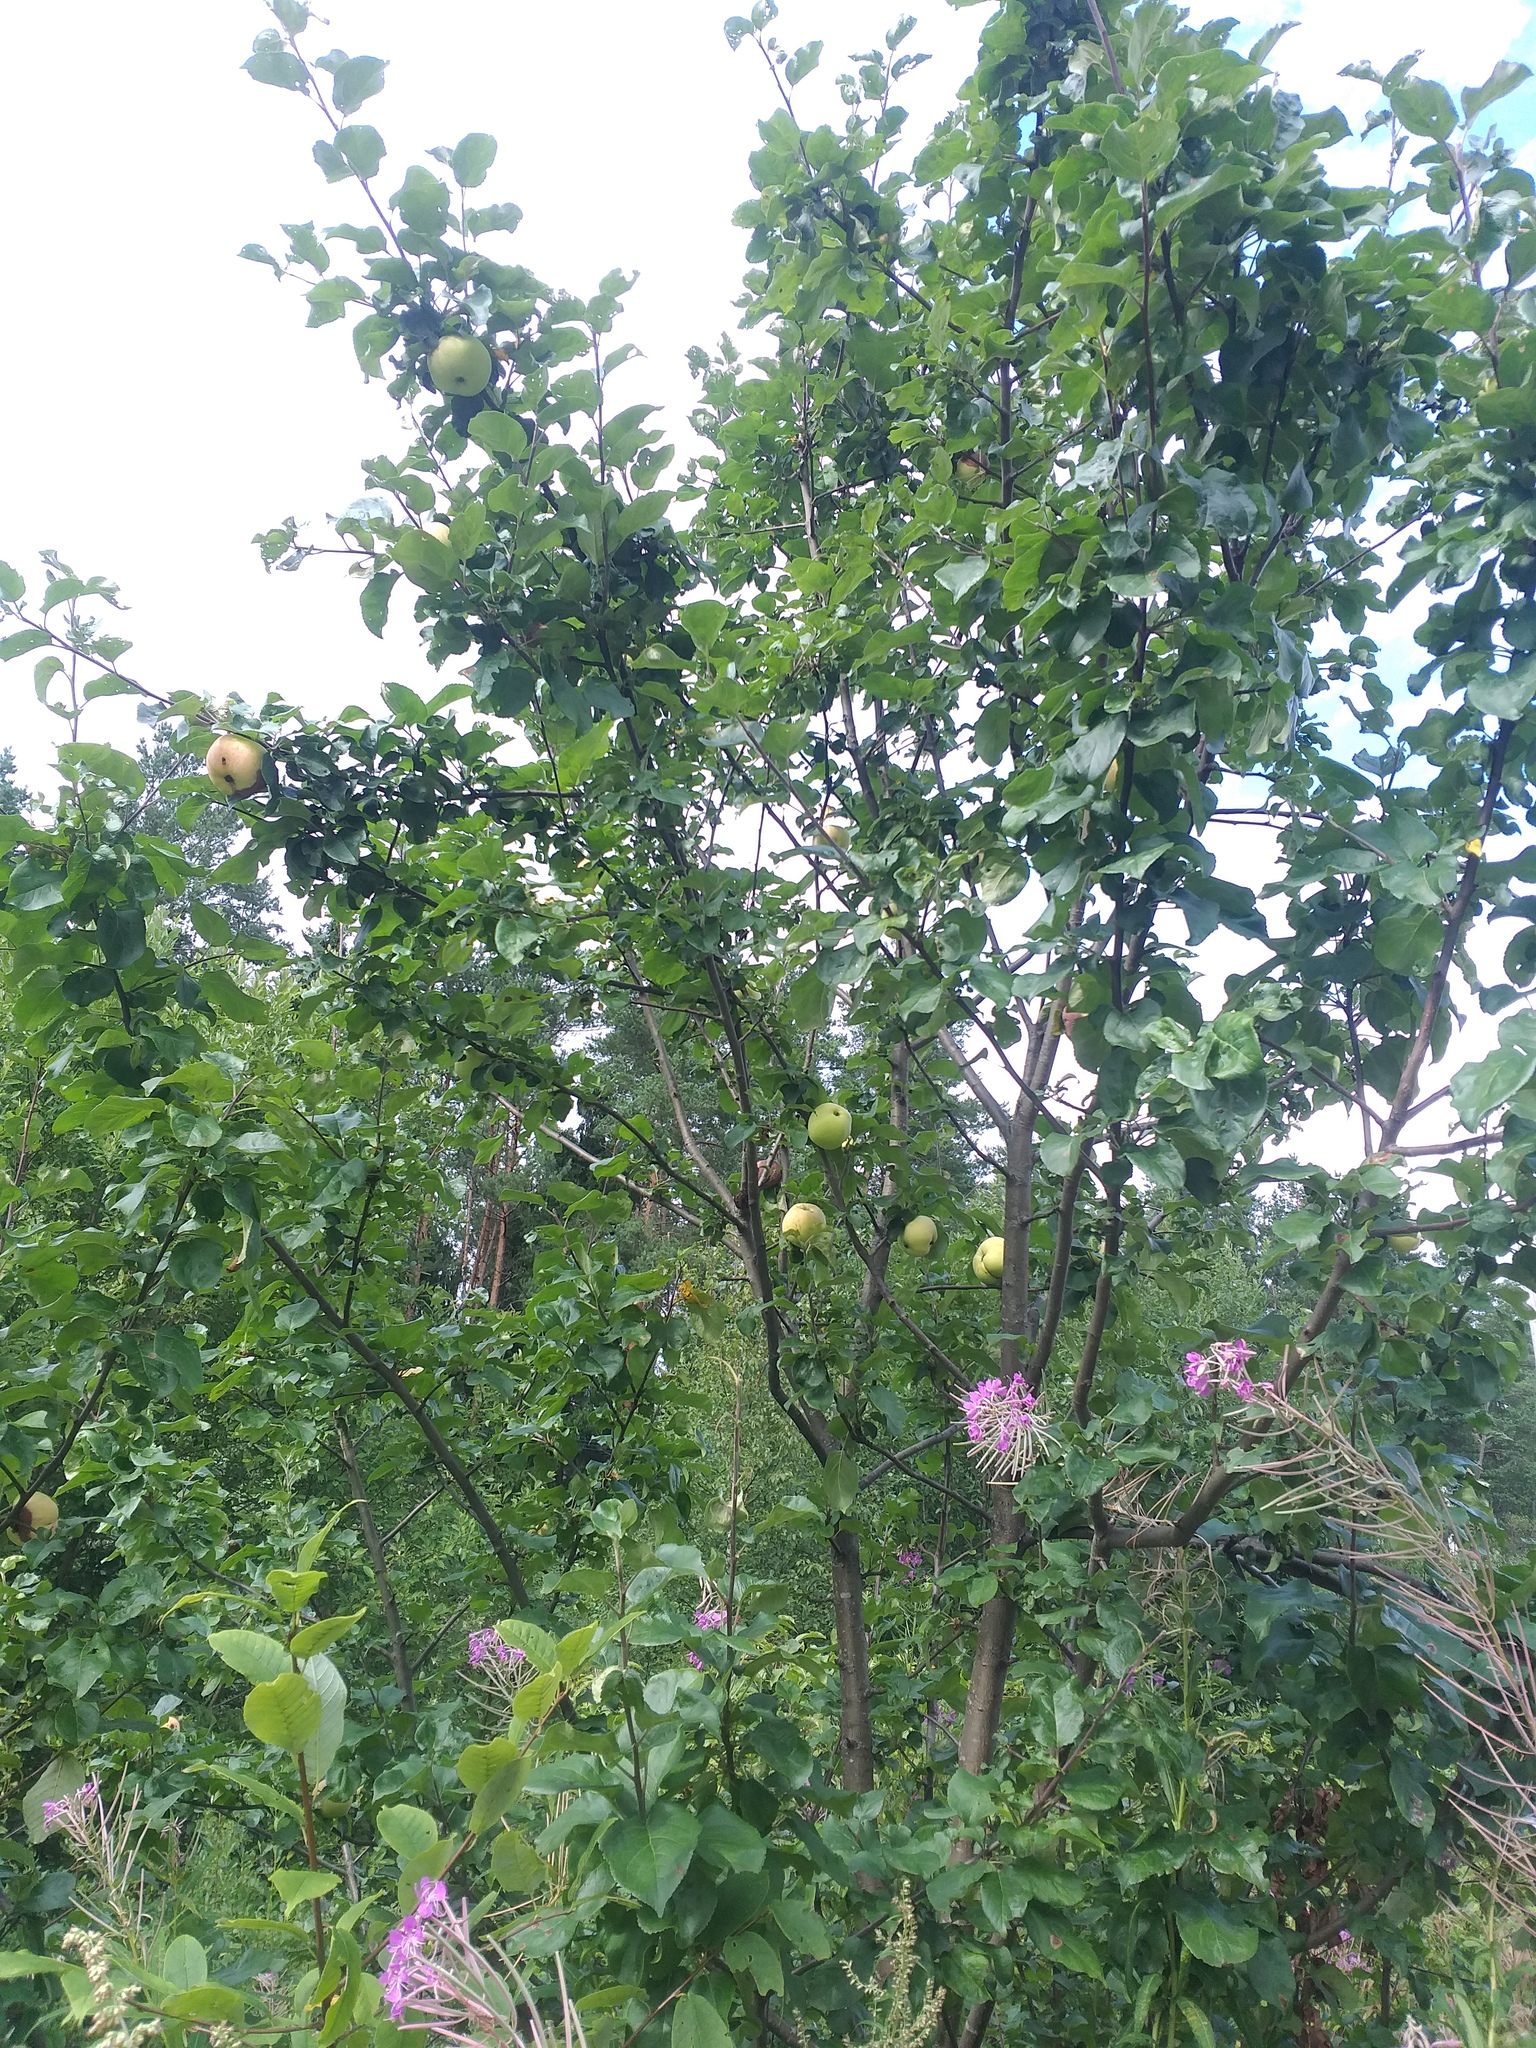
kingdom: Plantae
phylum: Tracheophyta
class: Magnoliopsida
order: Rosales
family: Rosaceae
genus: Malus
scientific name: Malus domestica
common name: Apple
